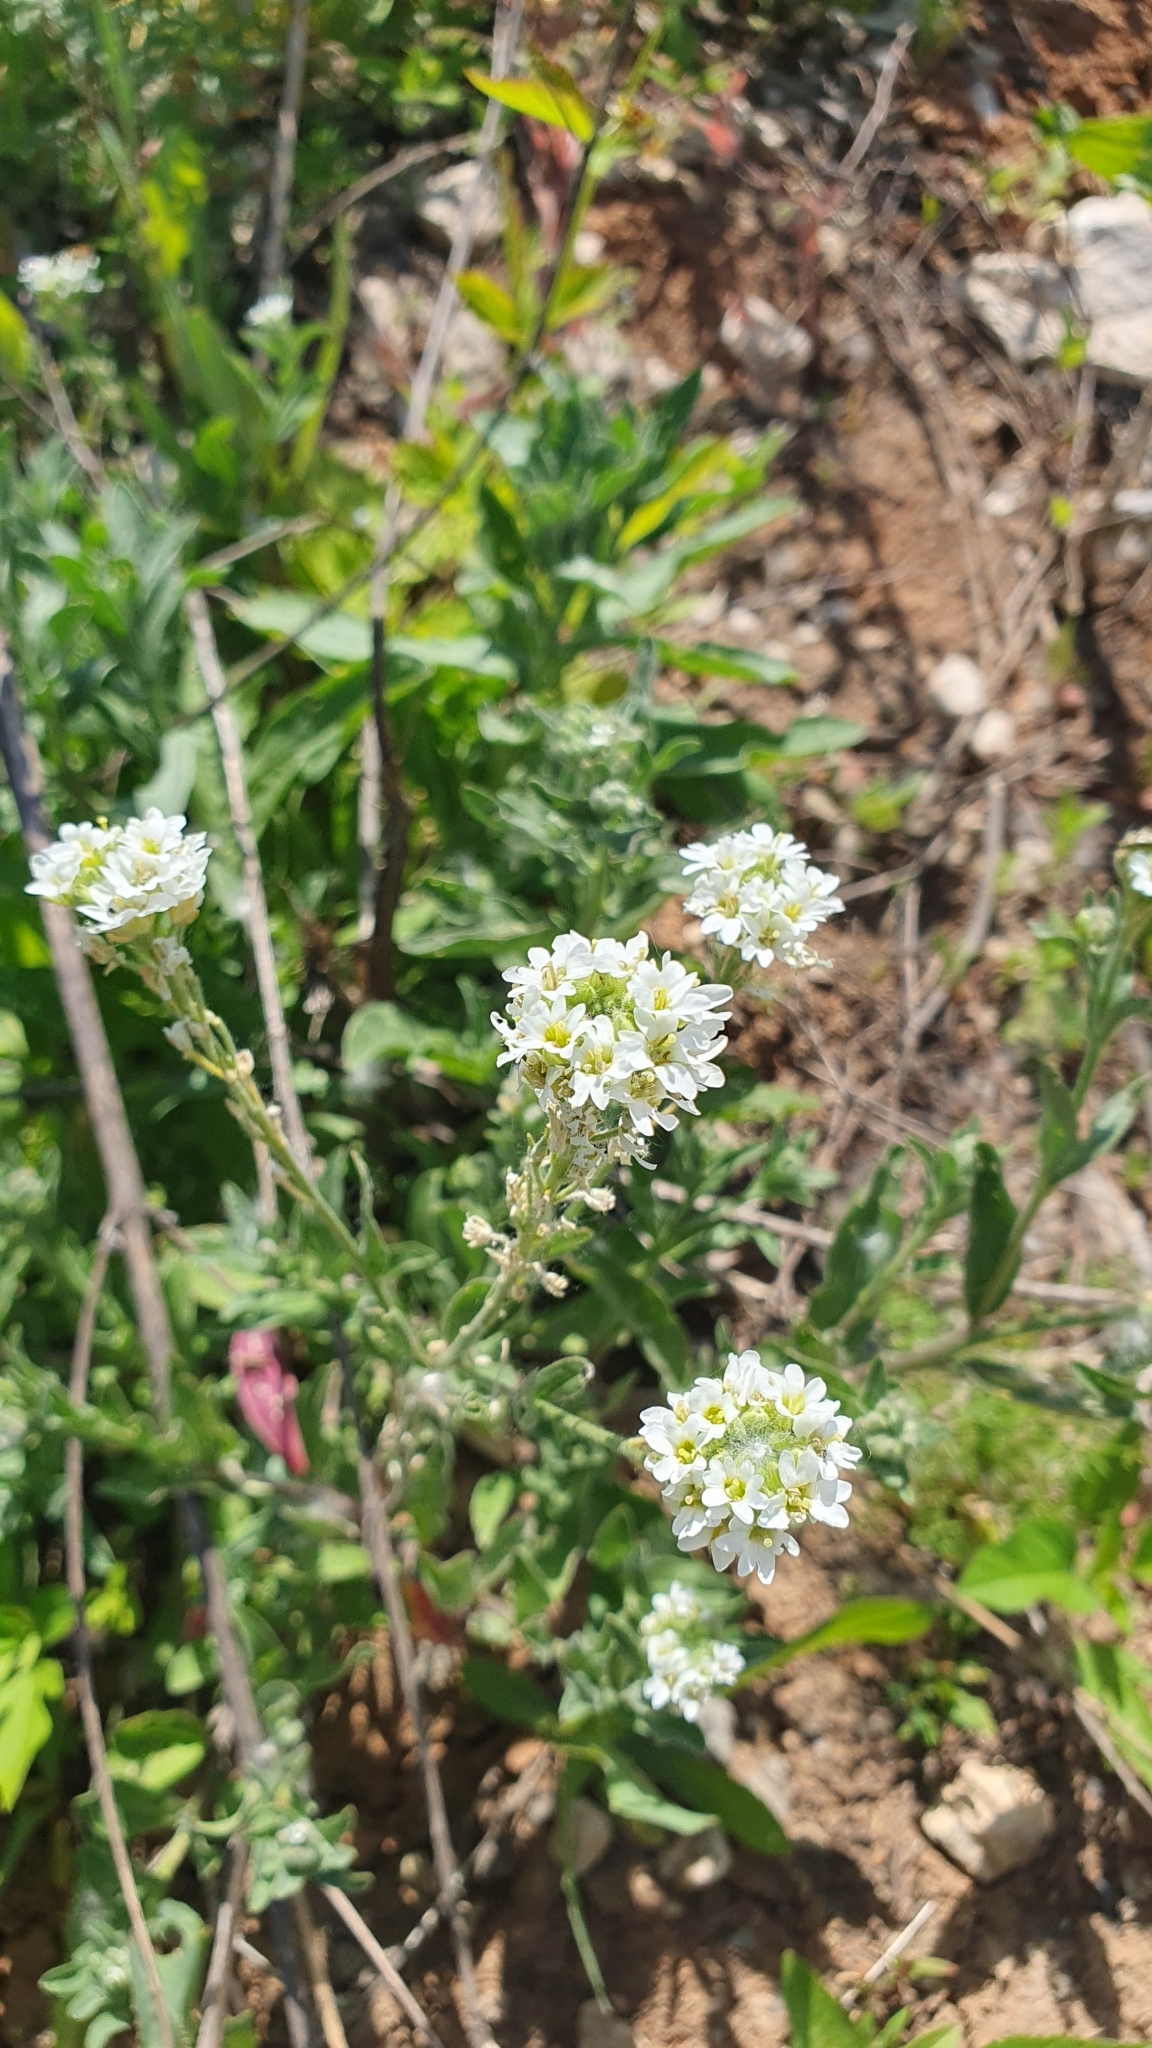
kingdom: Plantae
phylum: Tracheophyta
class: Magnoliopsida
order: Brassicales
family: Brassicaceae
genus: Berteroa
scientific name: Berteroa incana
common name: Hoary alison
